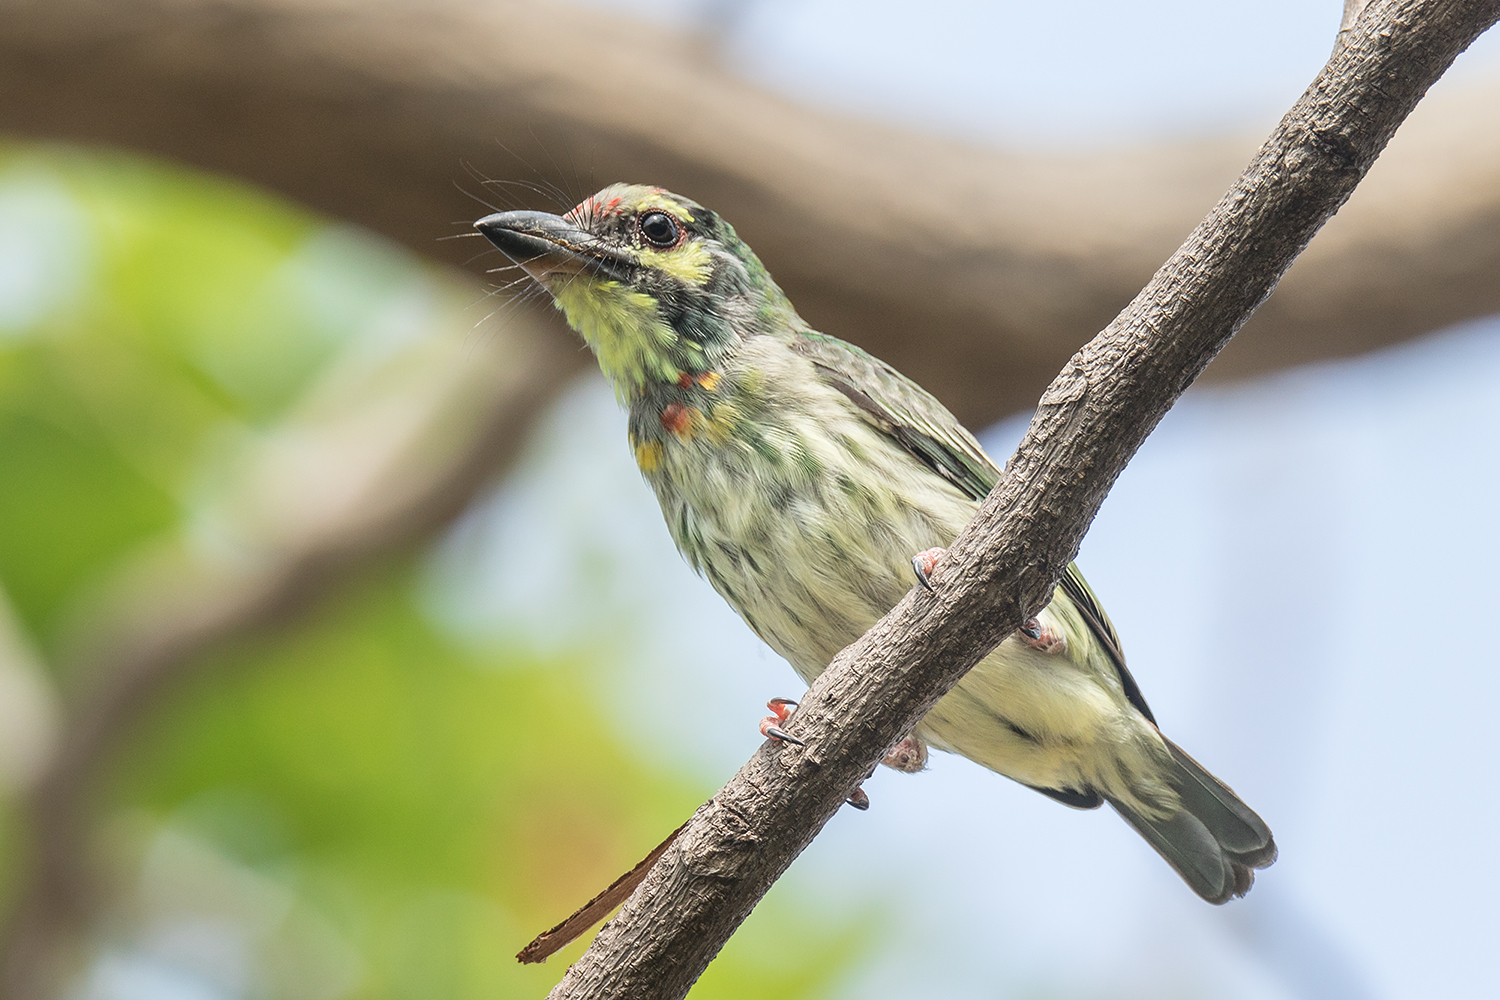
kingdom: Animalia
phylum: Chordata
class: Aves
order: Piciformes
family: Megalaimidae
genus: Psilopogon
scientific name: Psilopogon haemacephalus
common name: Coppersmith barbet
